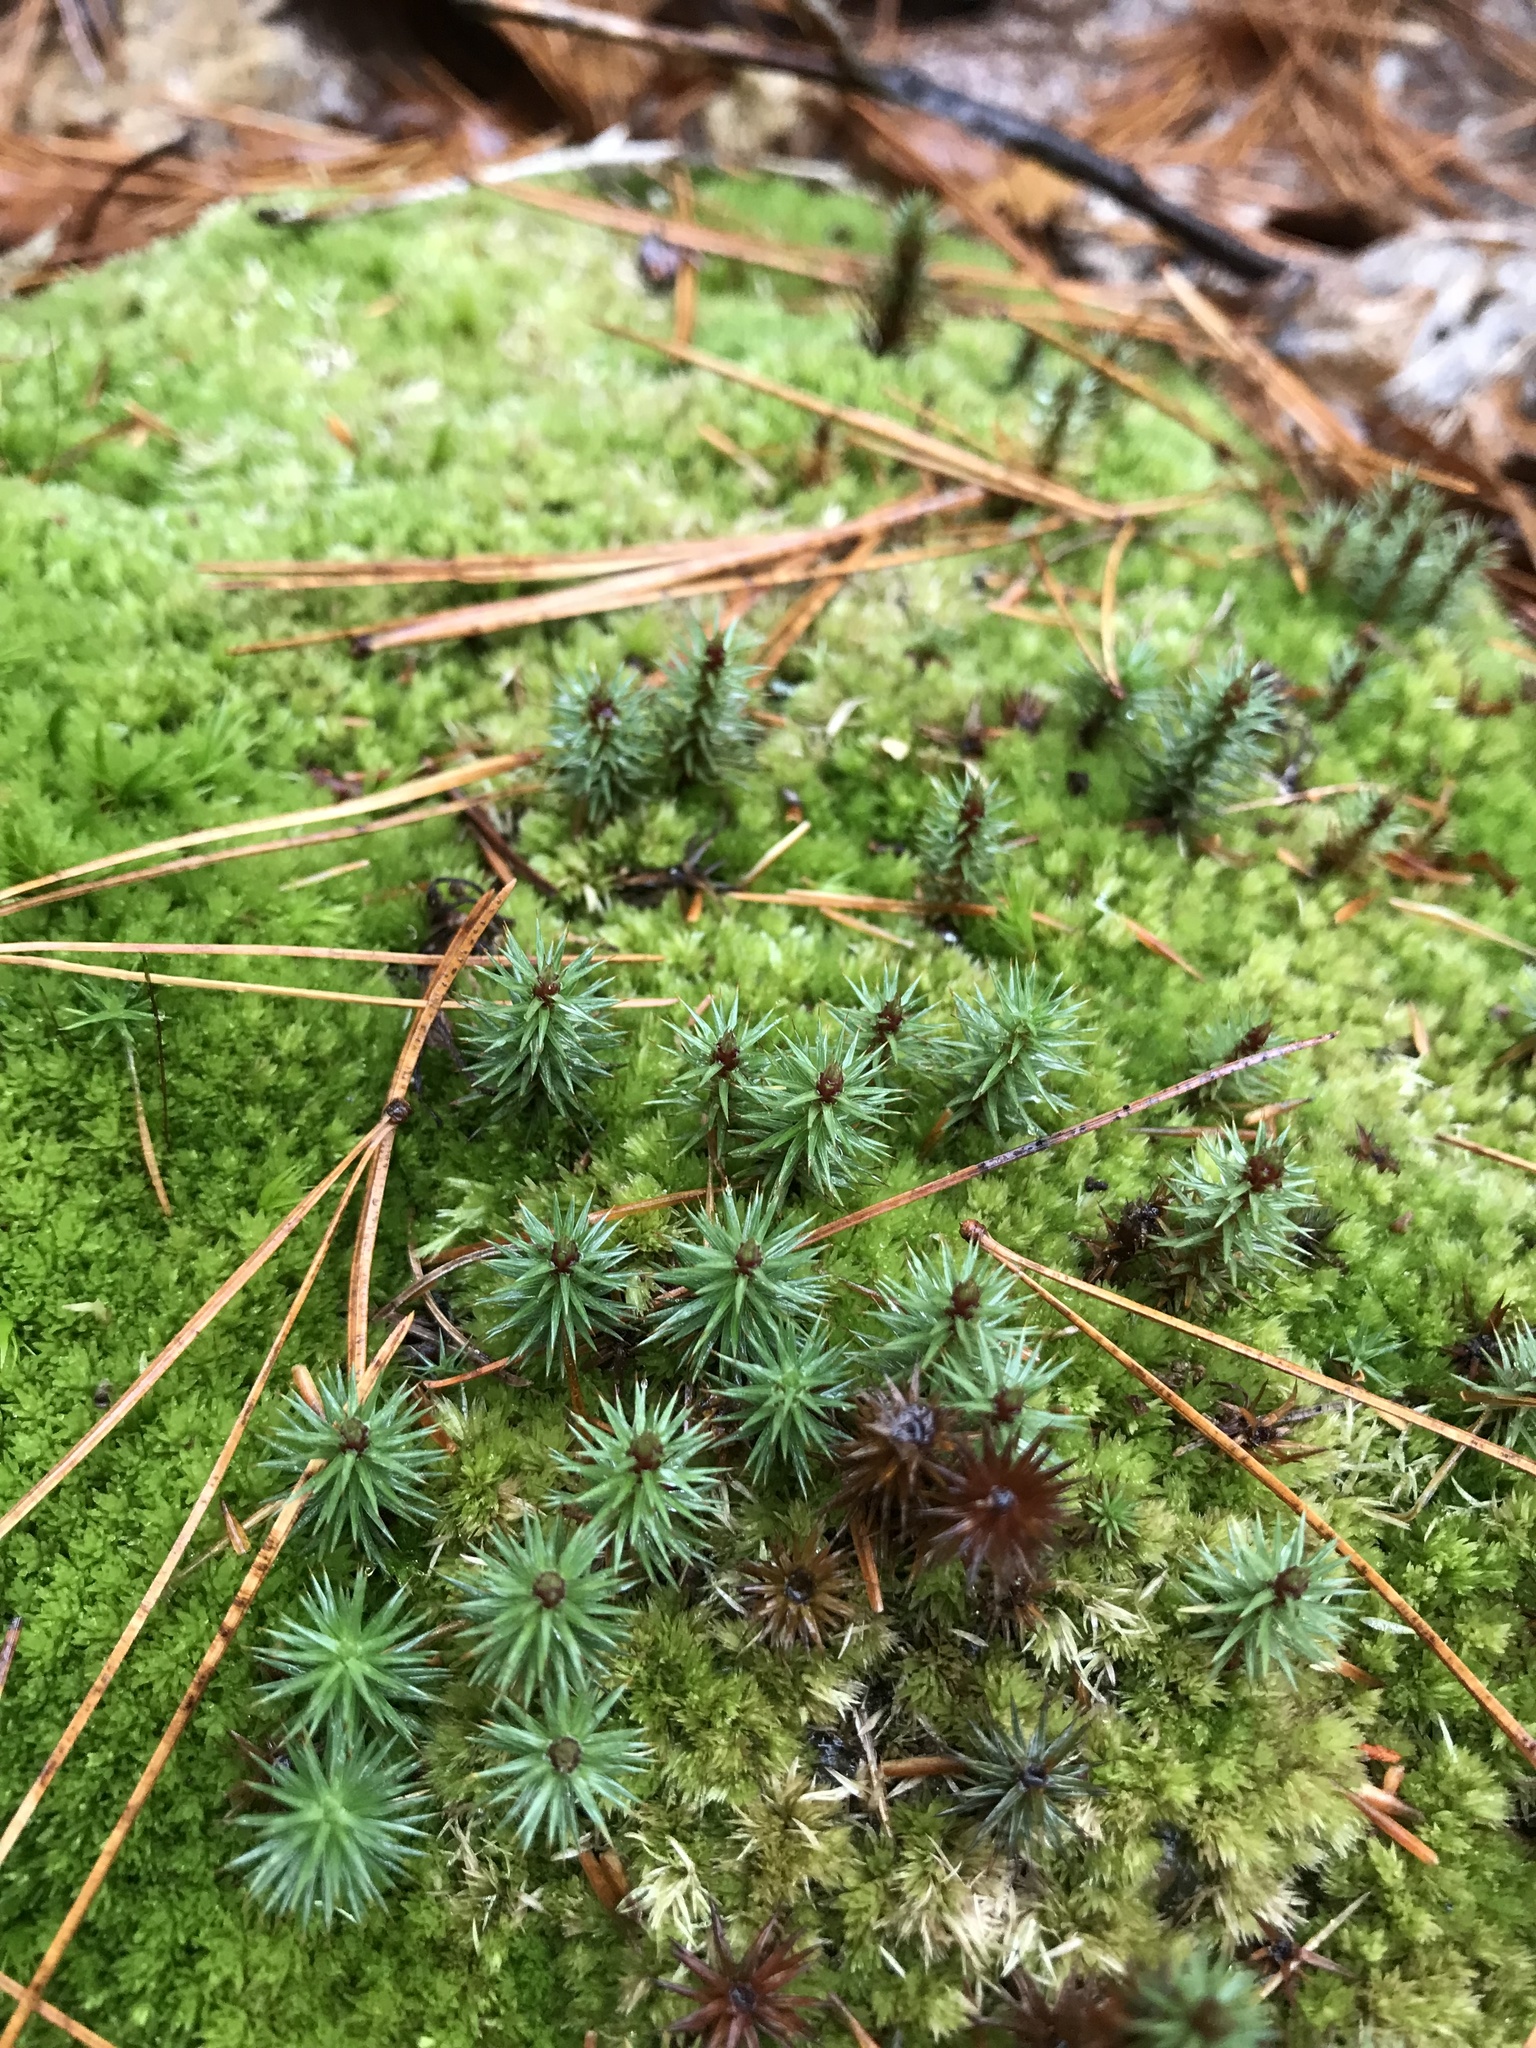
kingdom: Plantae
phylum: Bryophyta
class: Polytrichopsida
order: Polytrichales
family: Polytrichaceae
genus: Polytrichum
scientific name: Polytrichum juniperinum
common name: Juniper haircap moss
